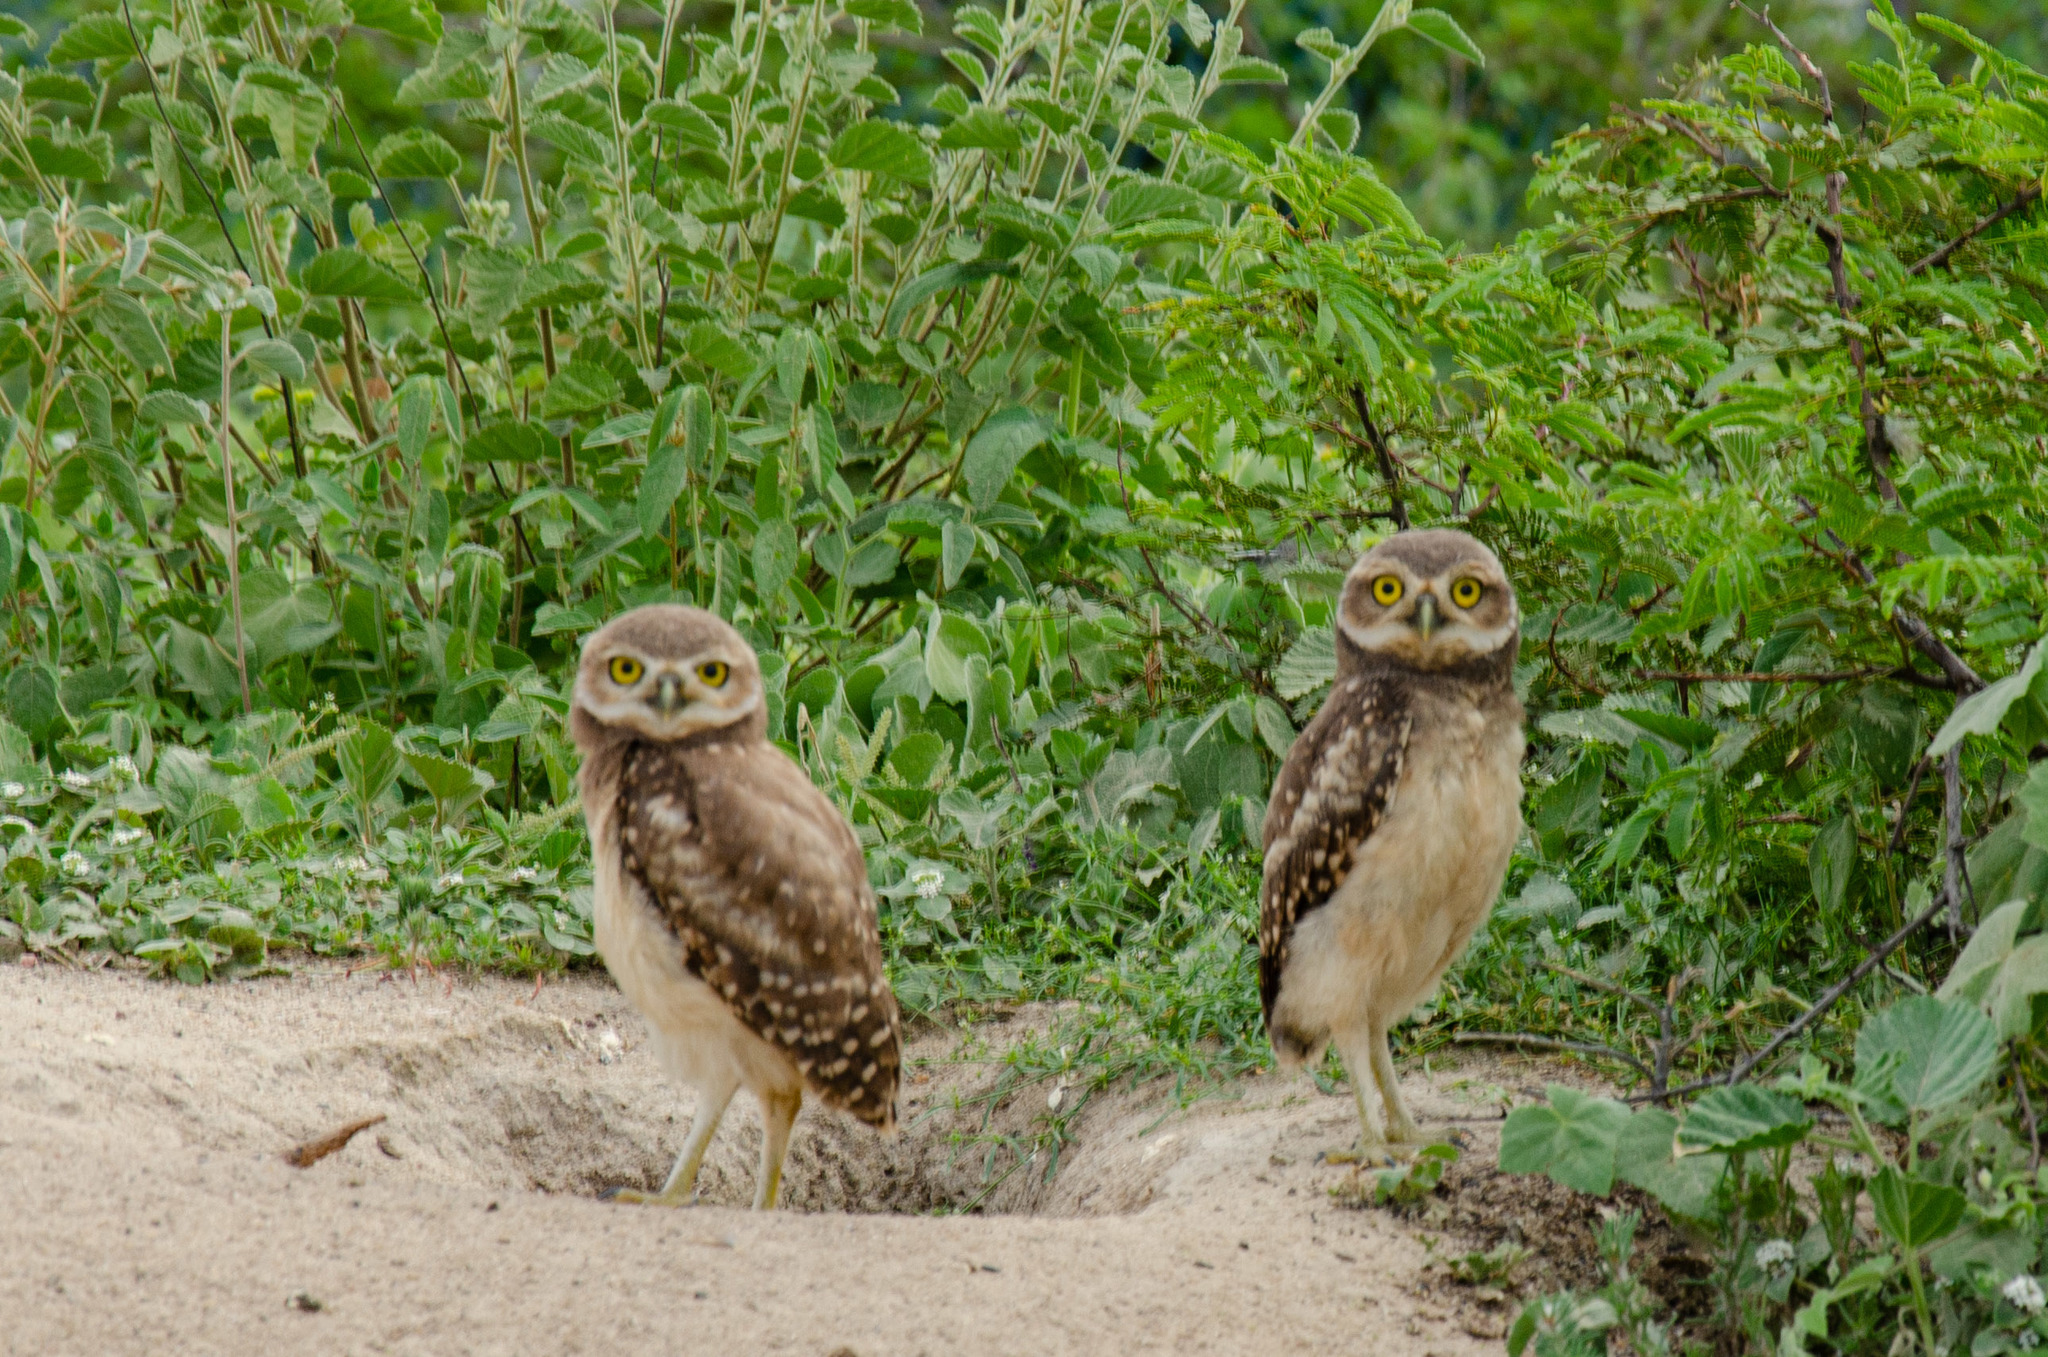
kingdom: Animalia
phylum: Chordata
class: Aves
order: Strigiformes
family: Strigidae
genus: Athene
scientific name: Athene cunicularia
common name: Burrowing owl
